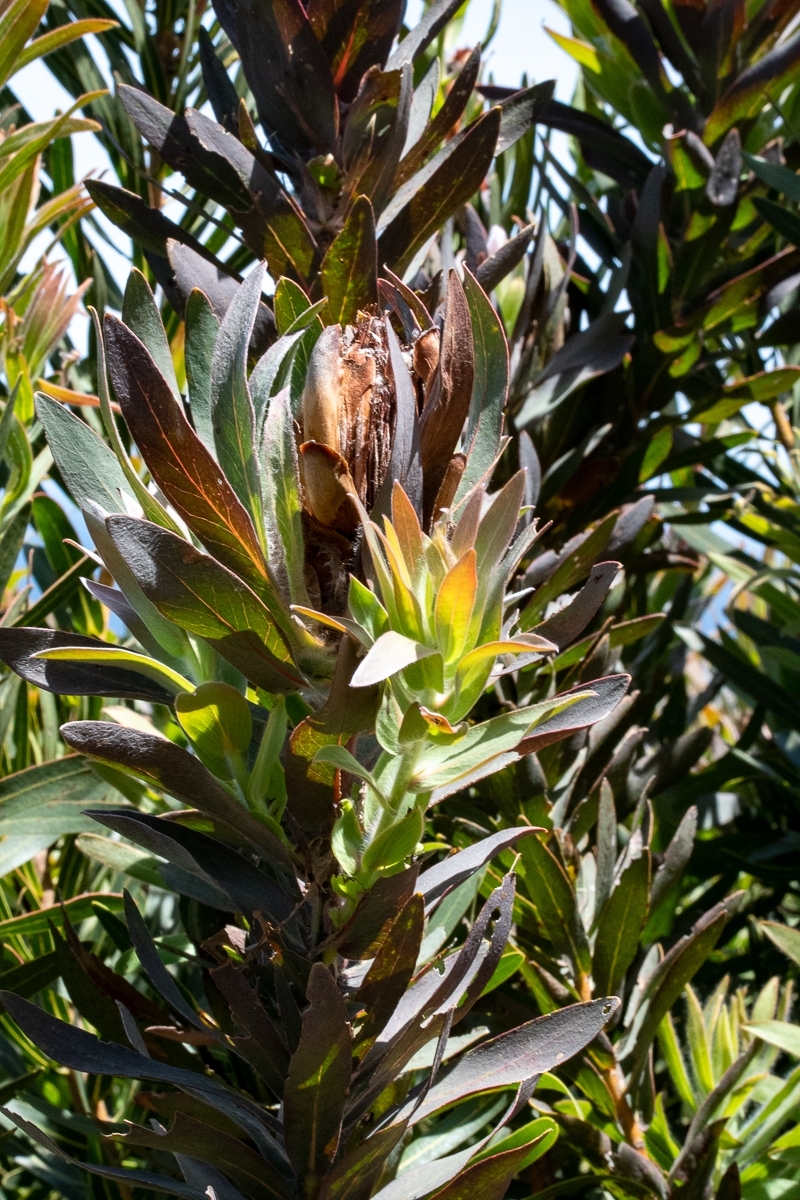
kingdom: Plantae
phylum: Tracheophyta
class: Magnoliopsida
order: Proteales
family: Proteaceae
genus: Protea
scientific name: Protea coronata
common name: Green sugarbush
